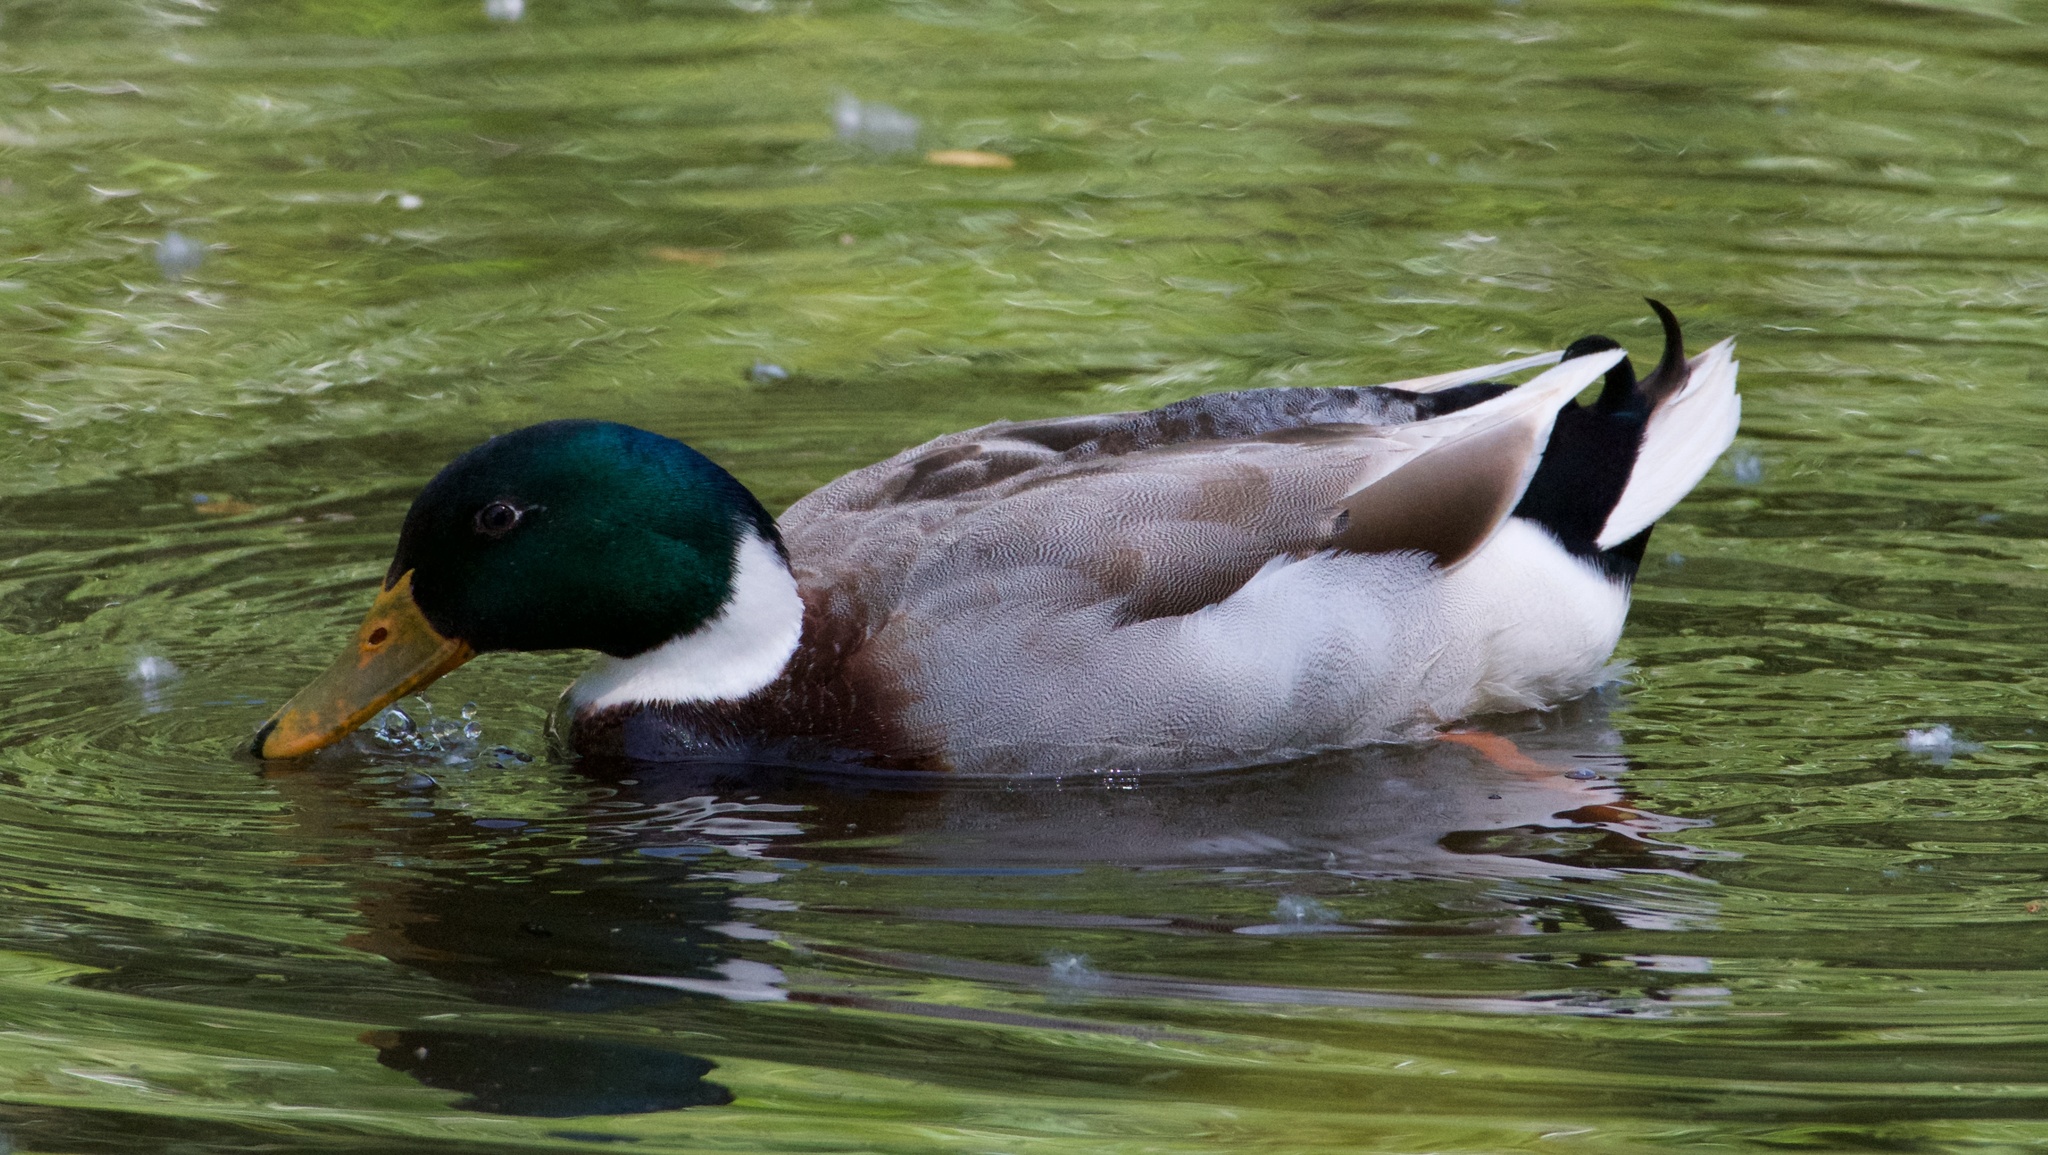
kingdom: Animalia
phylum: Chordata
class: Aves
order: Anseriformes
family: Anatidae
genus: Anas
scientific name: Anas platyrhynchos
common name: Mallard
